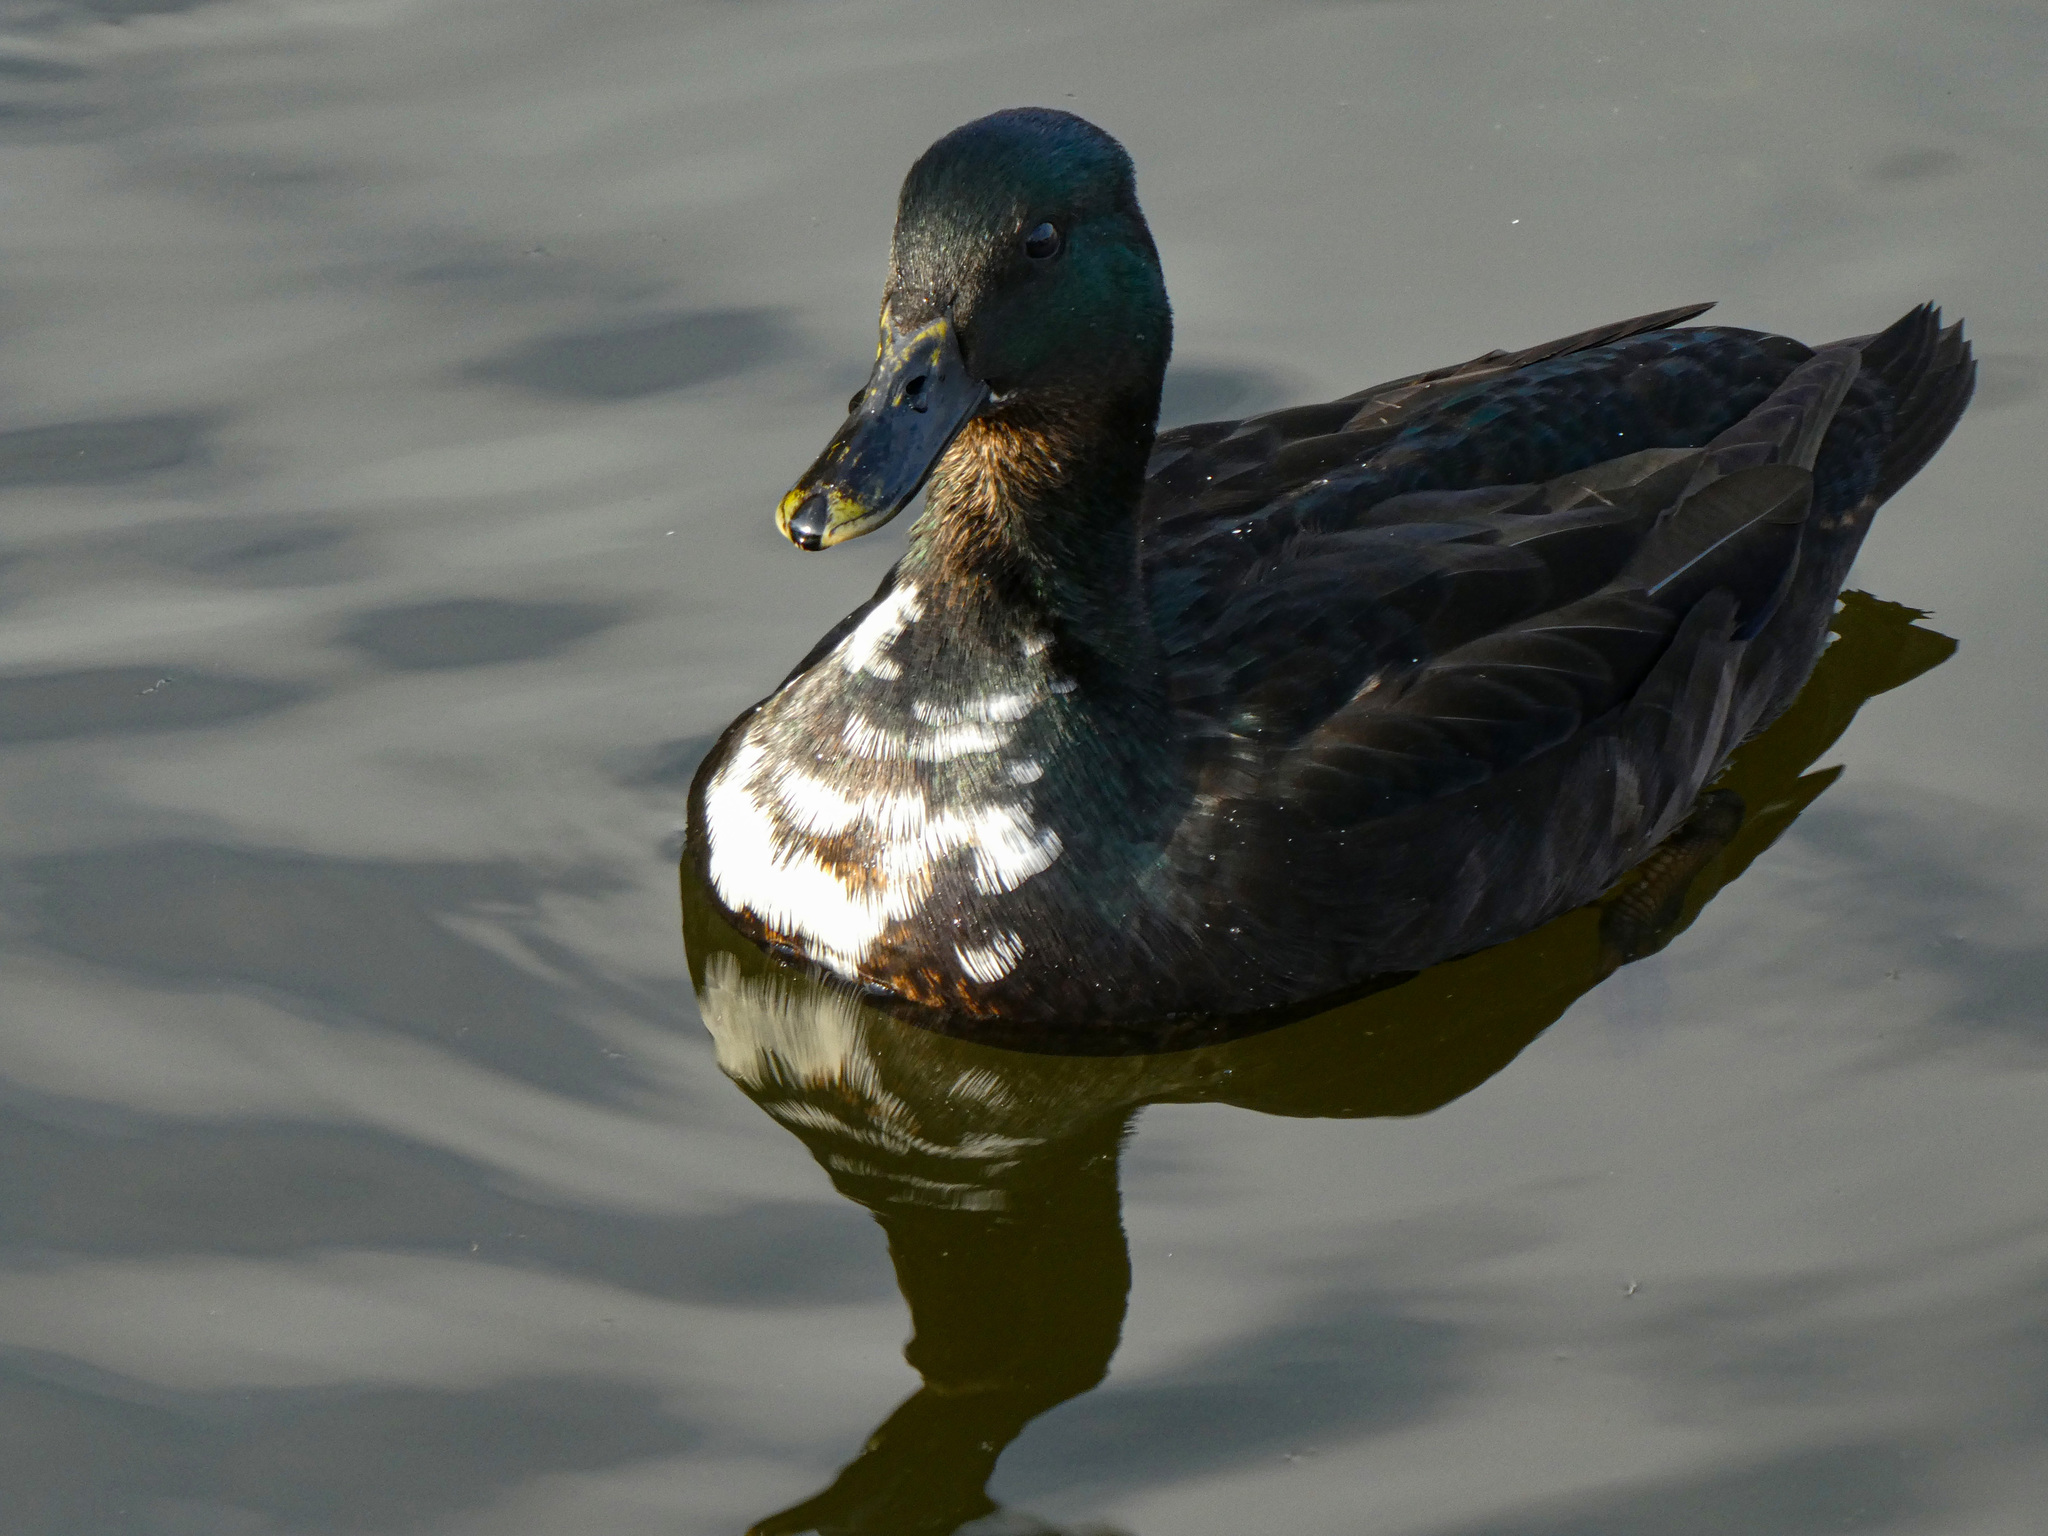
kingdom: Animalia
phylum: Chordata
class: Aves
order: Anseriformes
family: Anatidae
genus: Anas
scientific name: Anas platyrhynchos
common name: Mallard
